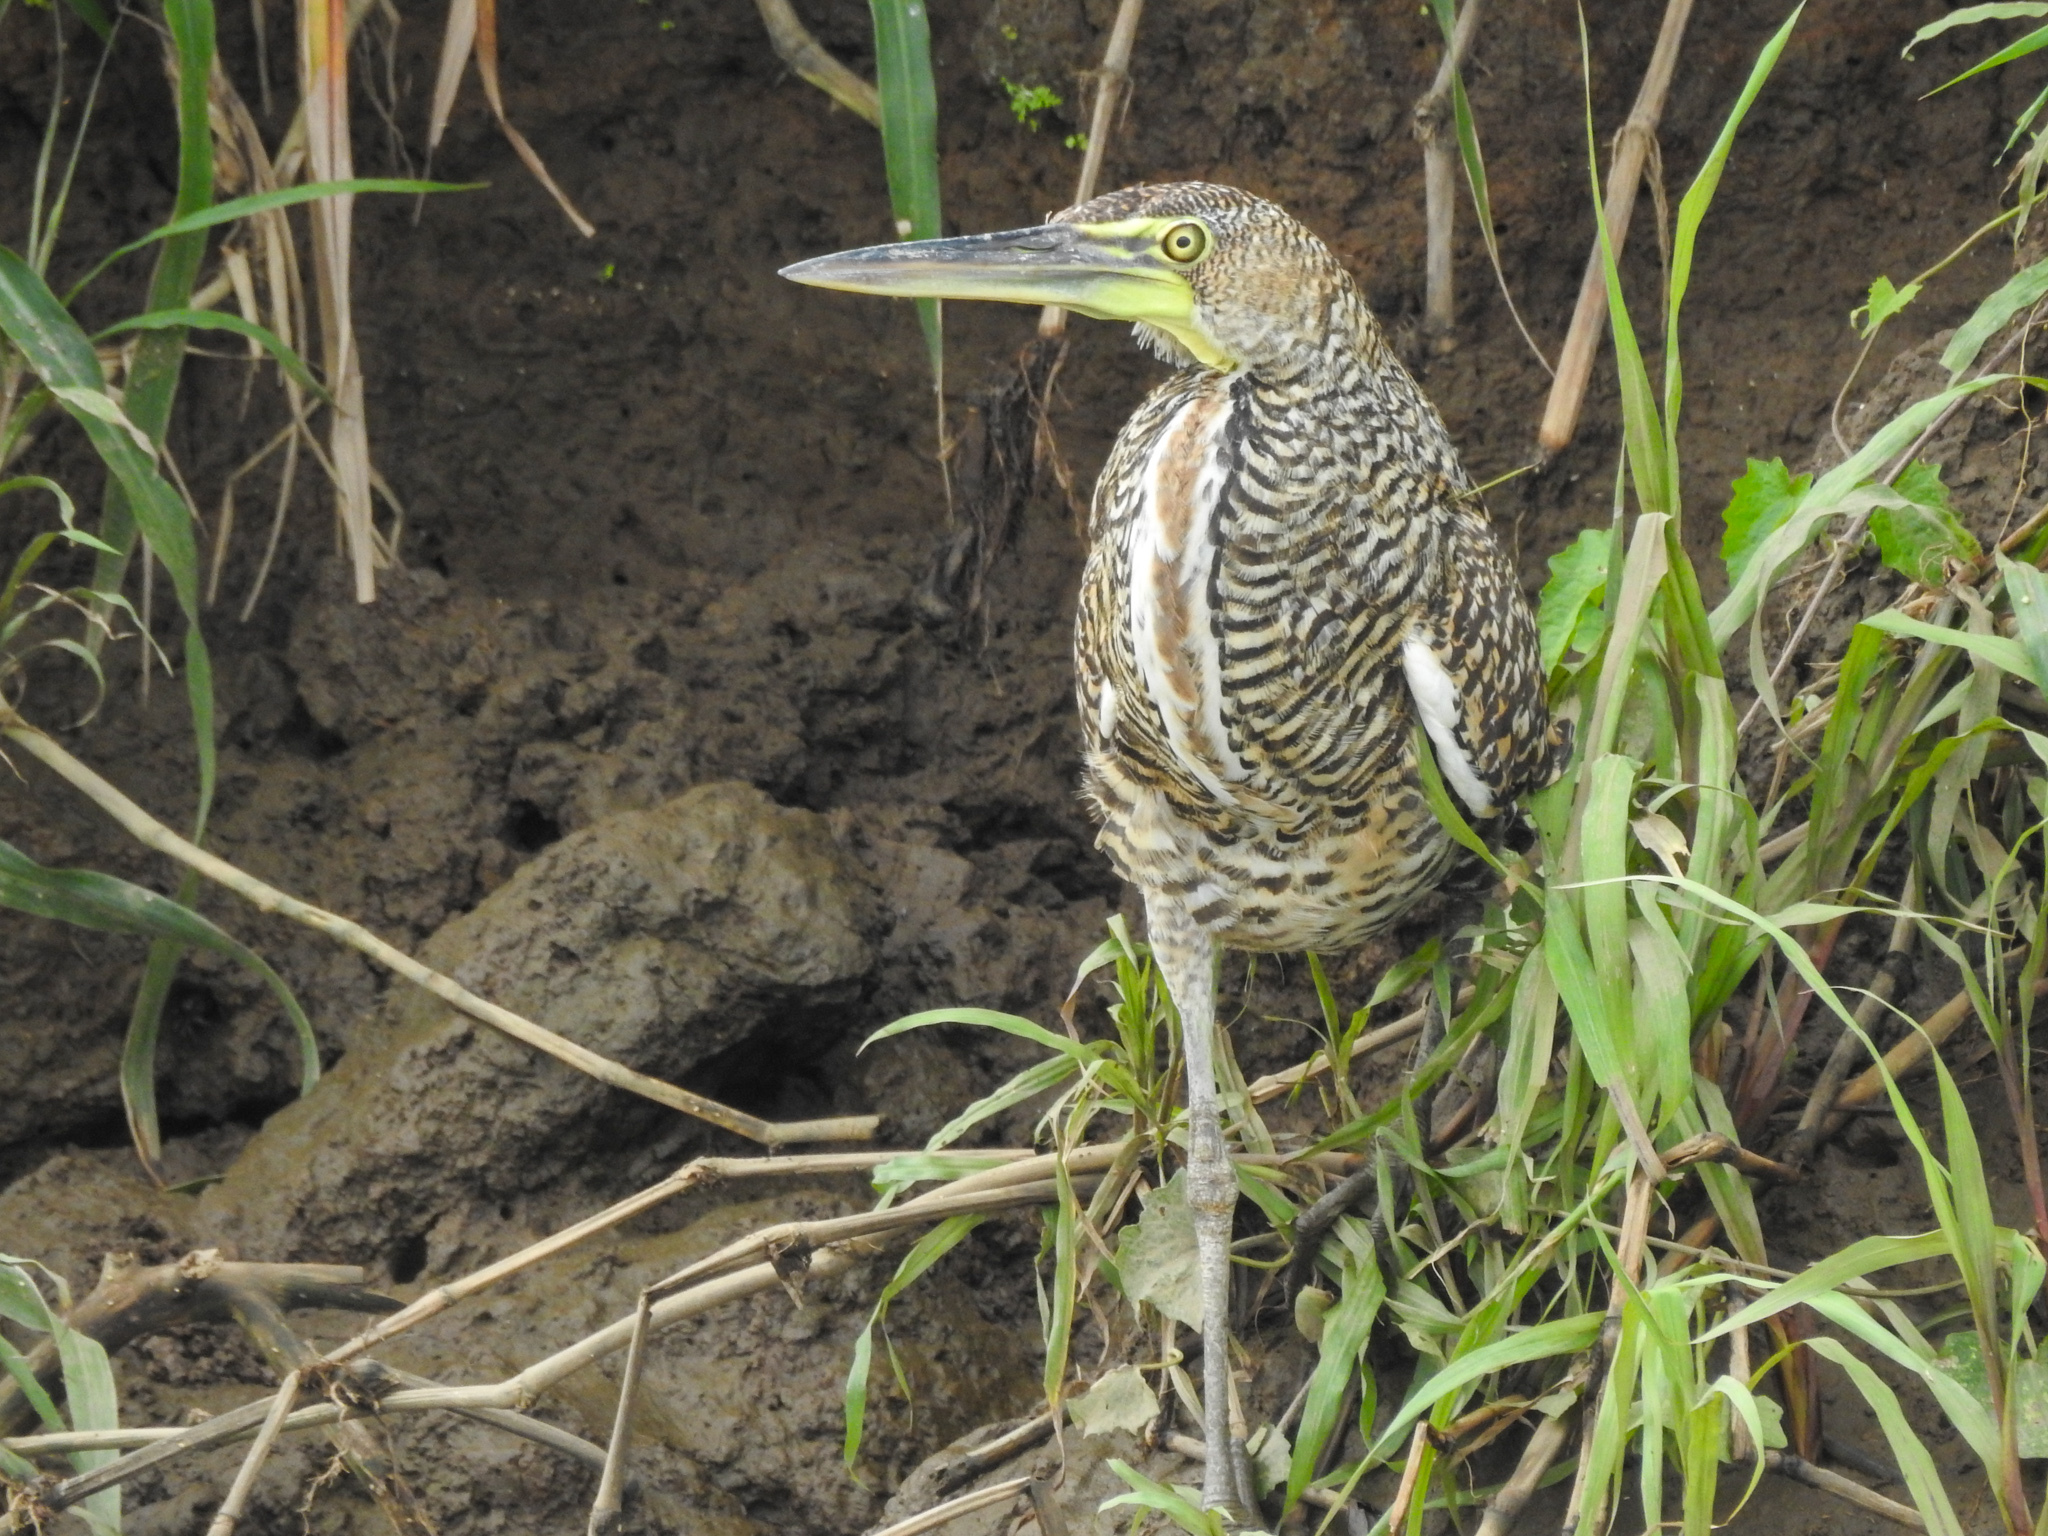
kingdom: Animalia
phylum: Chordata
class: Aves
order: Pelecaniformes
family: Ardeidae
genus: Tigrisoma
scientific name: Tigrisoma mexicanum
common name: Bare-throated tiger-heron
